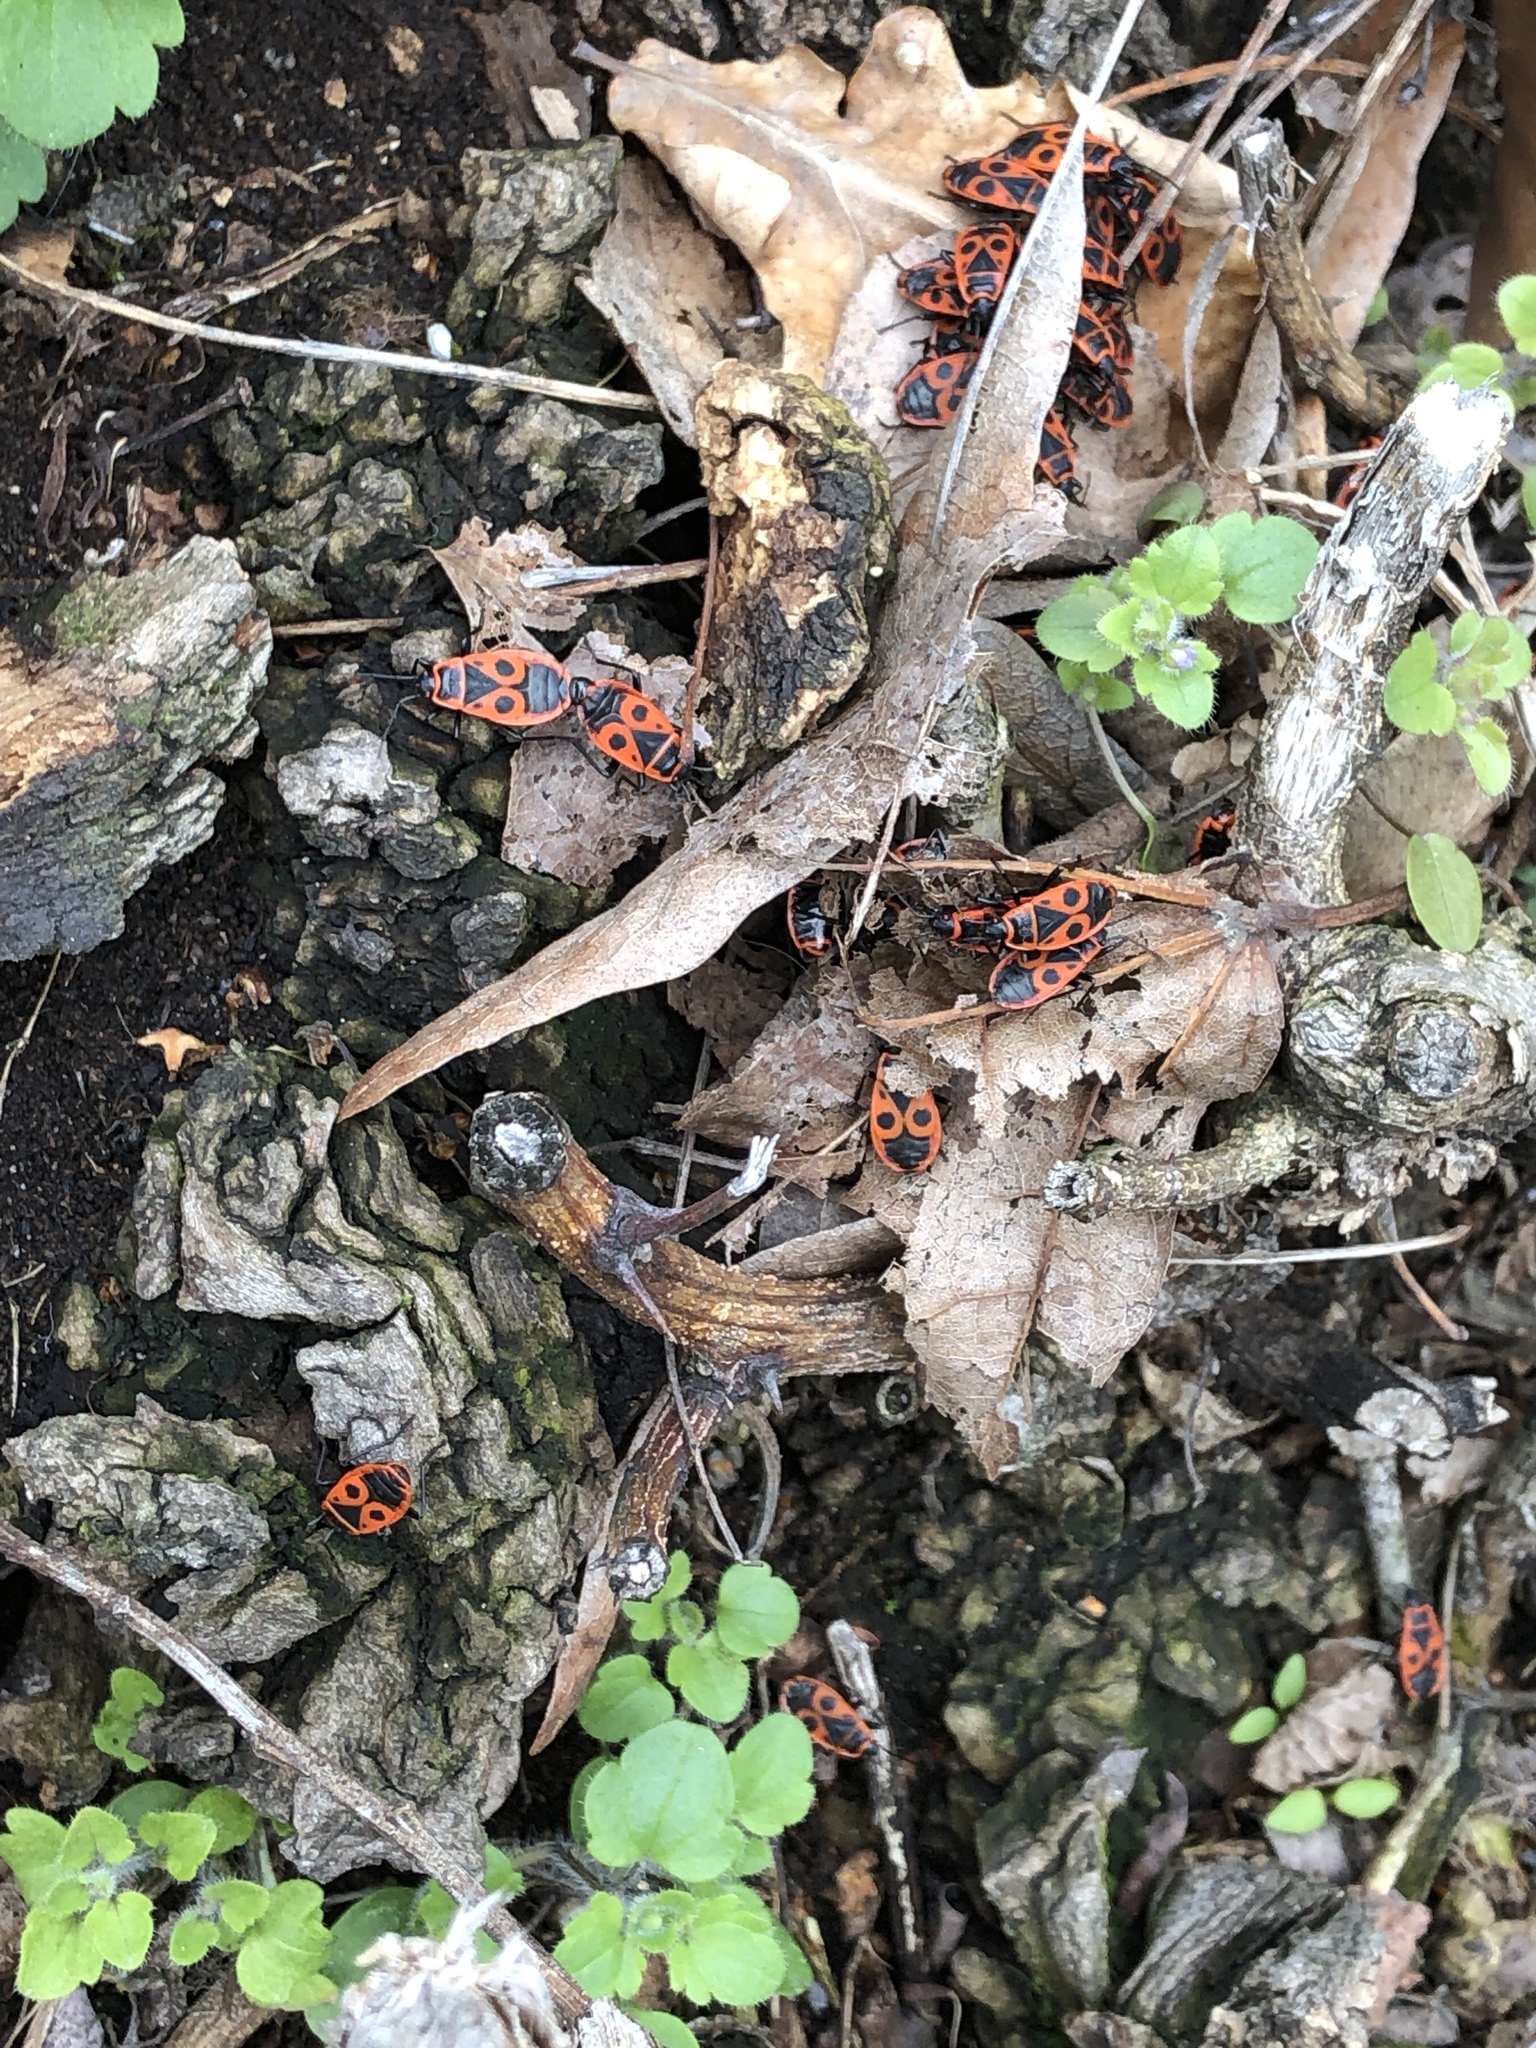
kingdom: Animalia
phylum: Arthropoda
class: Insecta
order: Hemiptera
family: Pyrrhocoridae
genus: Pyrrhocoris
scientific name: Pyrrhocoris apterus
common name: Firebug
